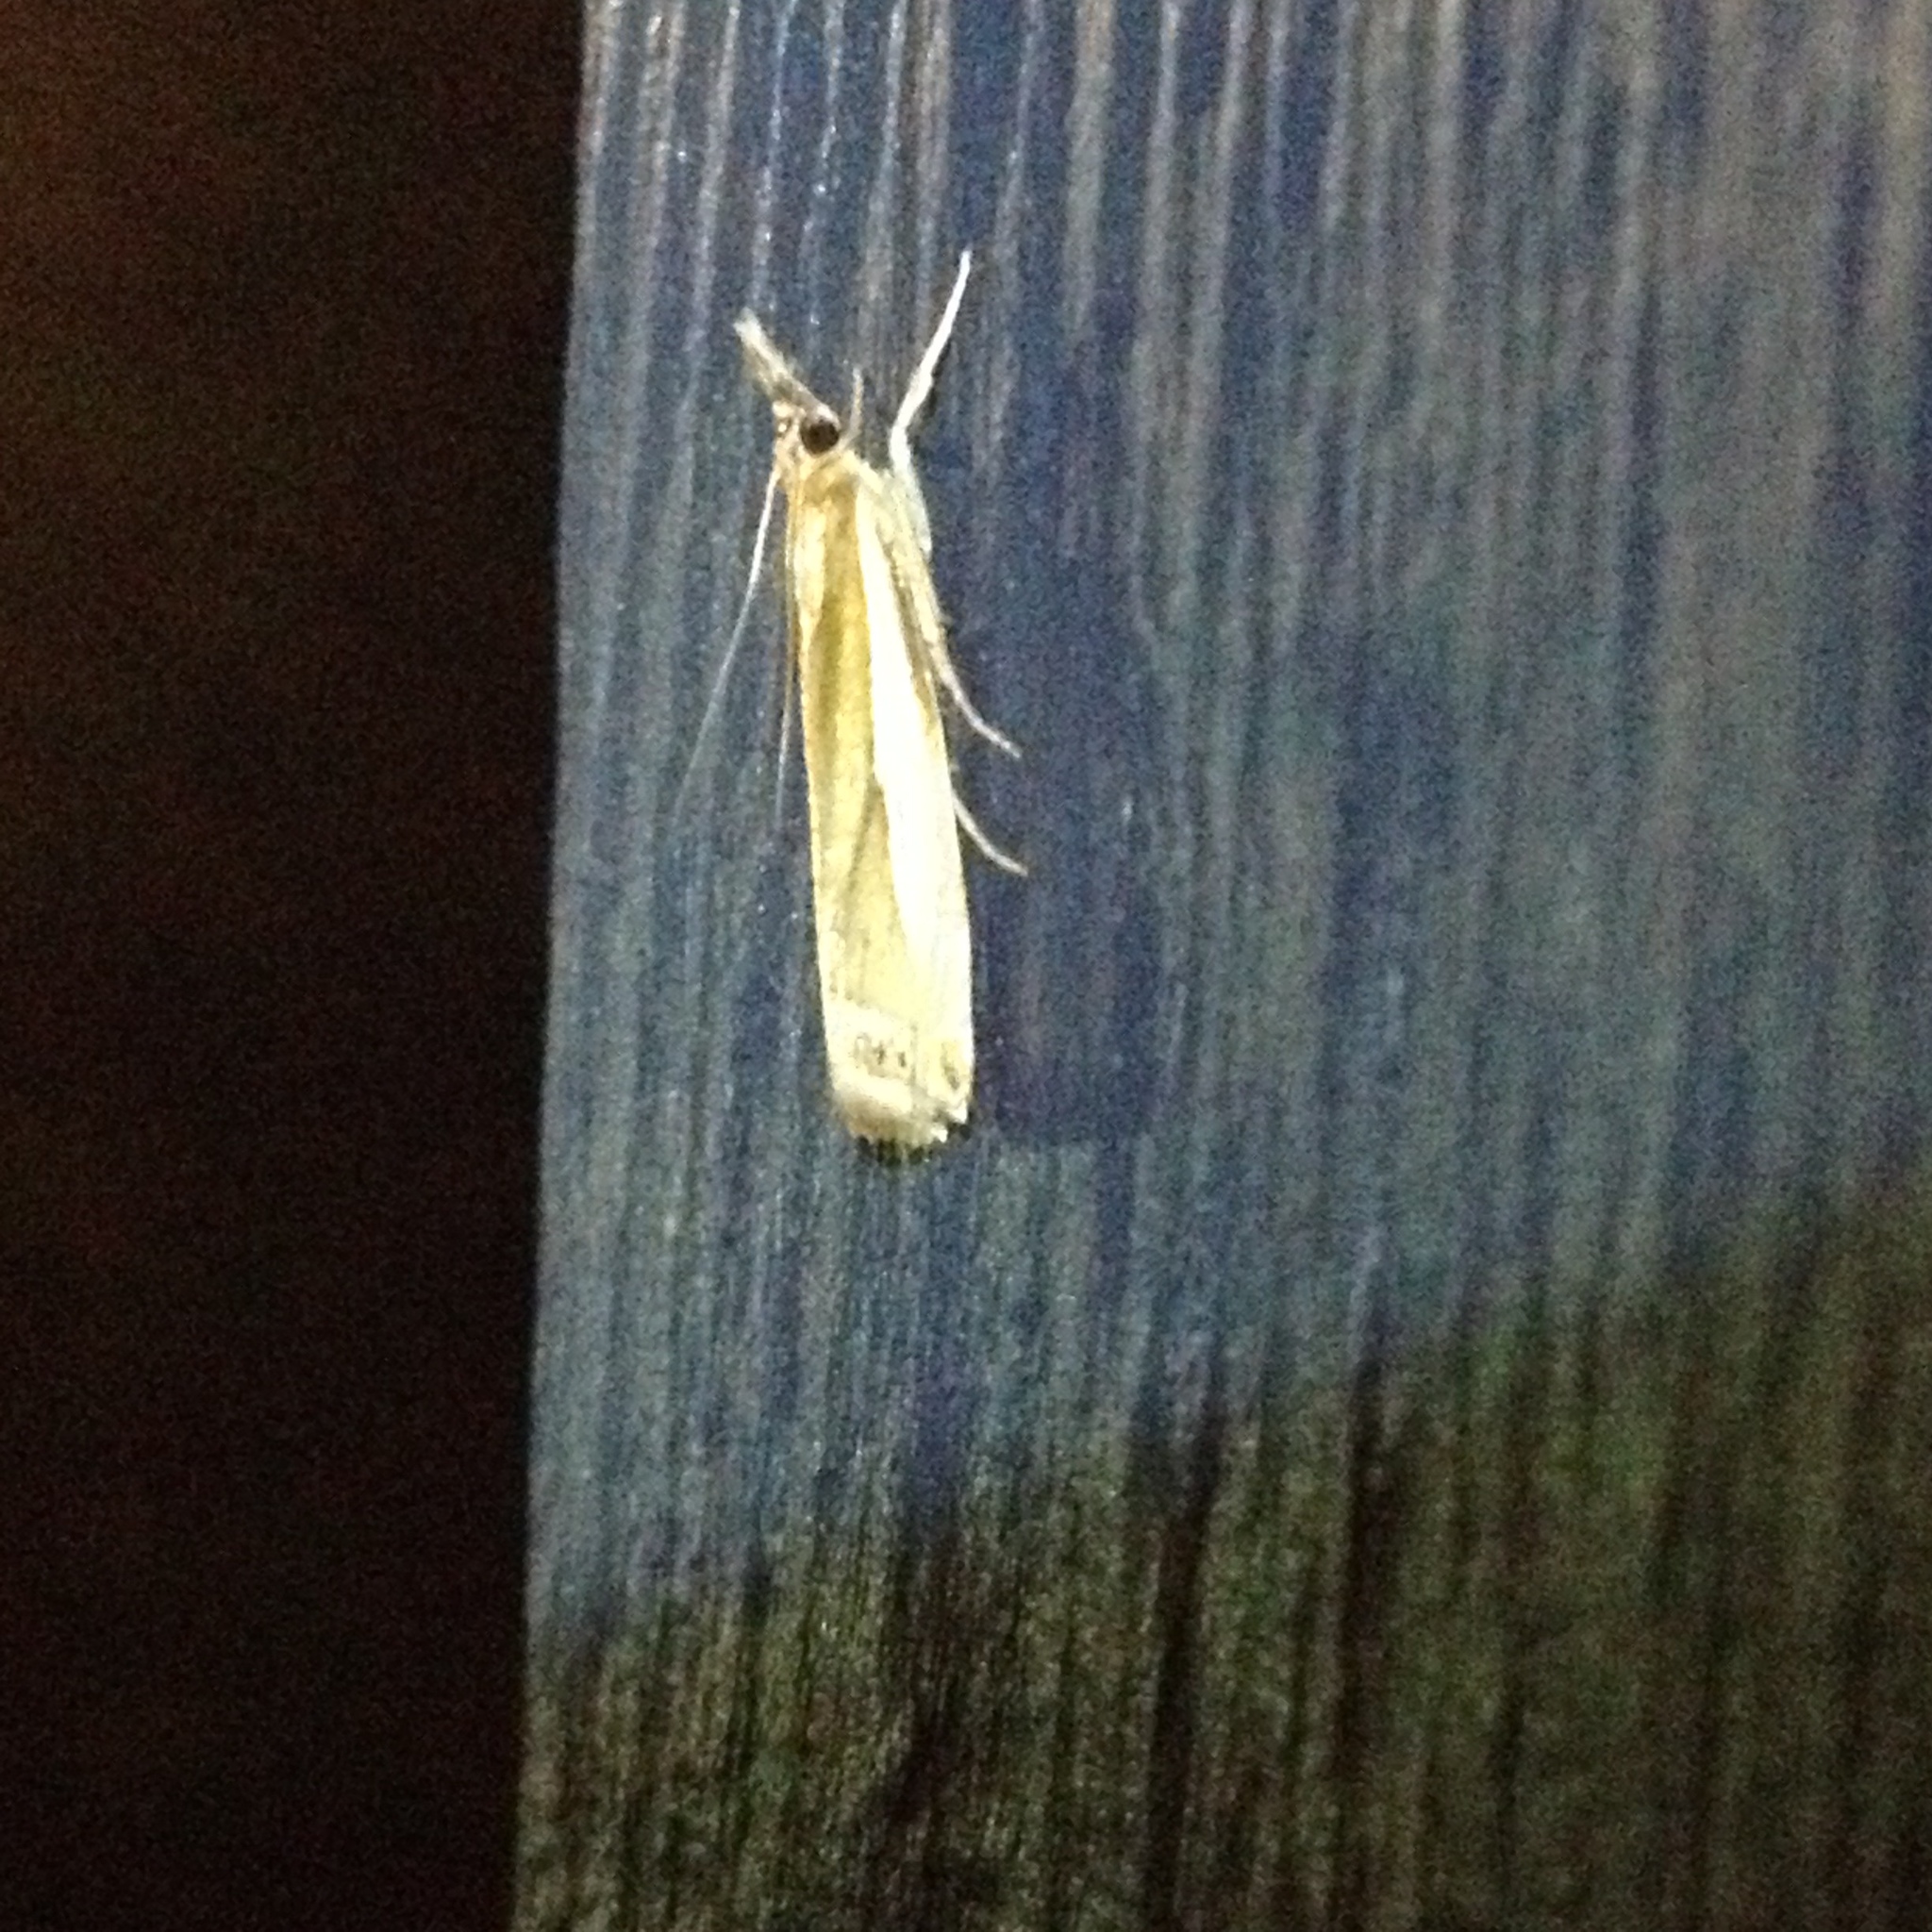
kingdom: Animalia
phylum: Arthropoda
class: Insecta
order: Lepidoptera
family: Crambidae
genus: Crambus
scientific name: Crambus
